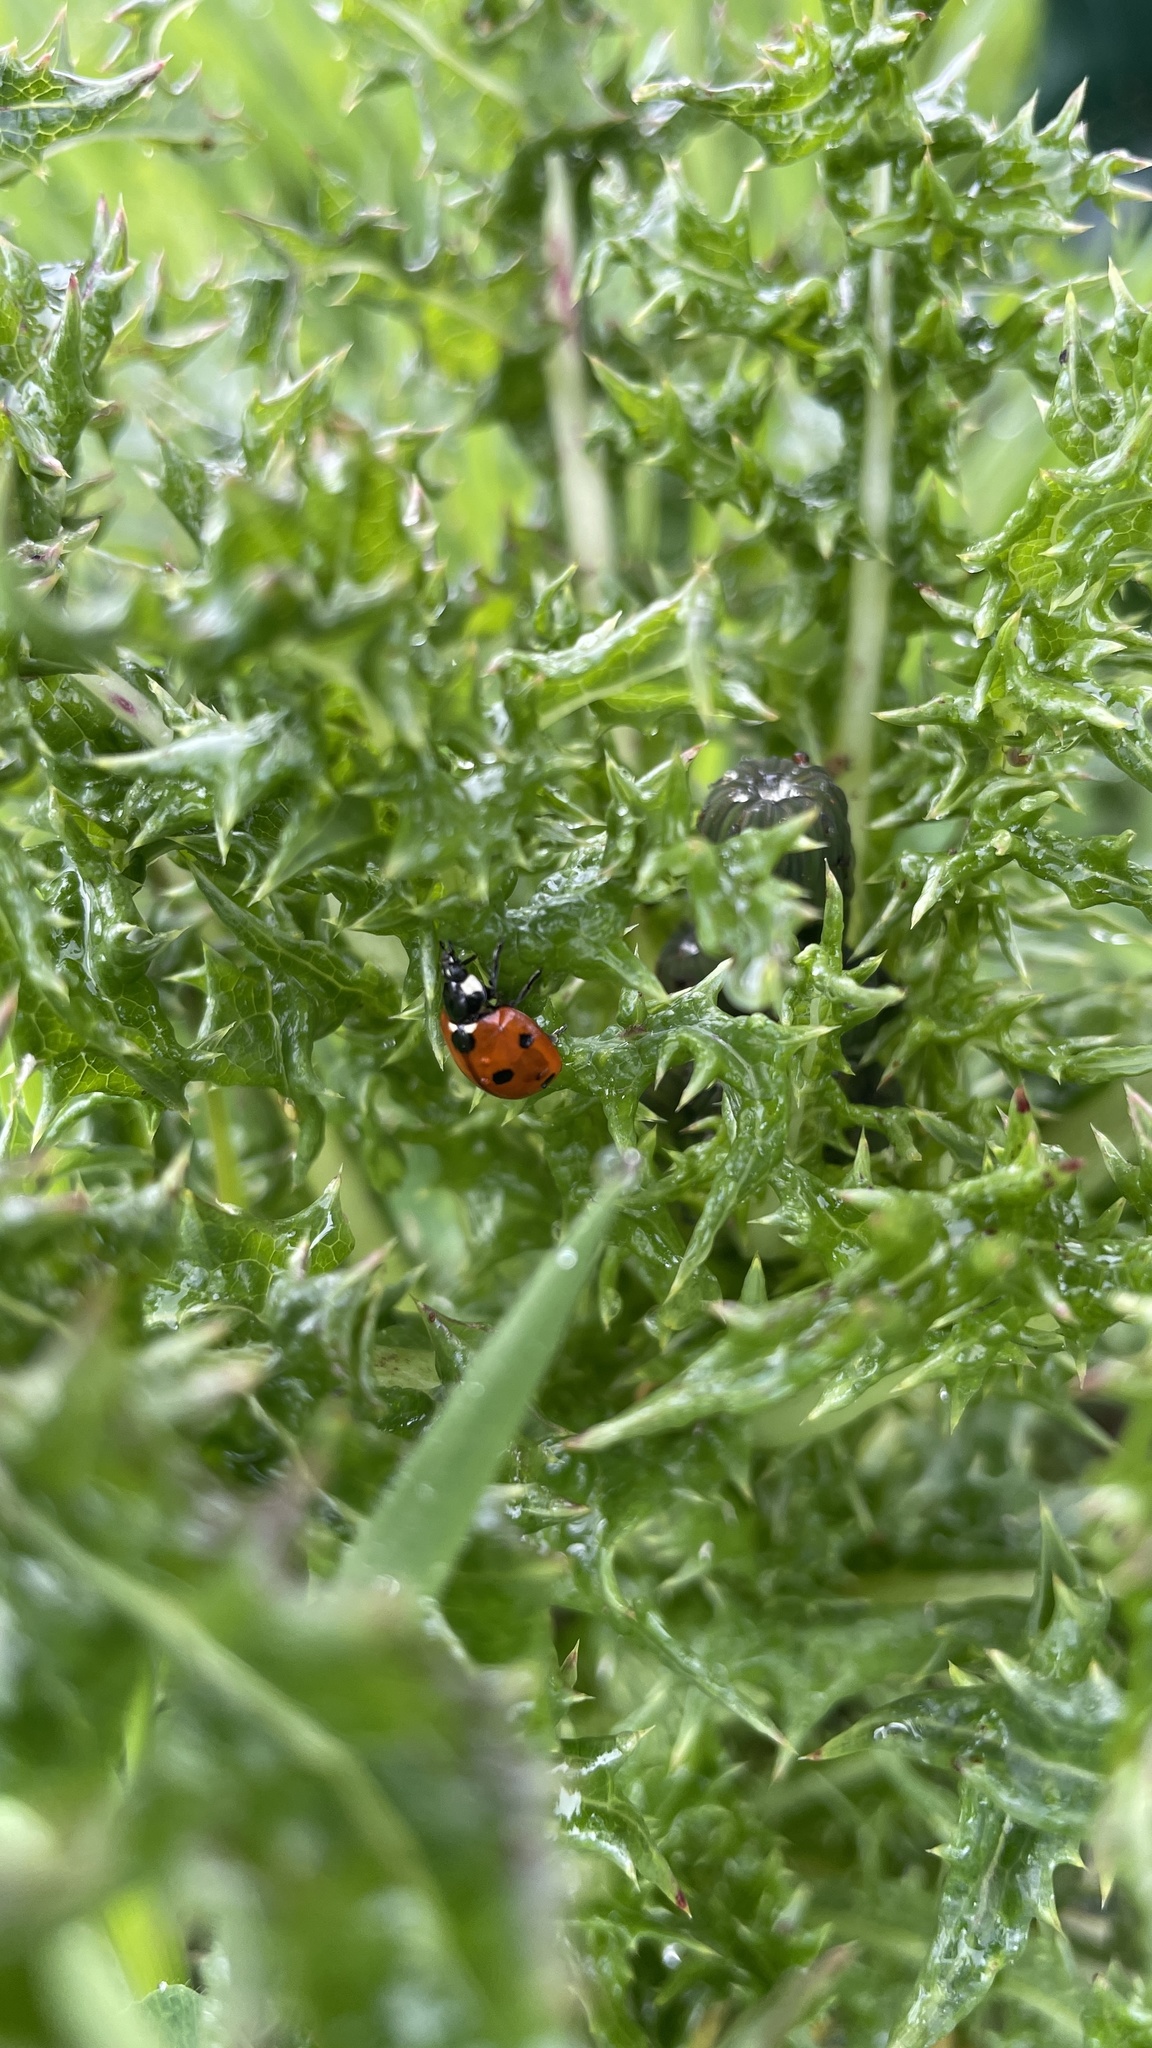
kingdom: Animalia
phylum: Arthropoda
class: Insecta
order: Coleoptera
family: Coccinellidae
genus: Coccinella
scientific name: Coccinella septempunctata
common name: Sevenspotted lady beetle
